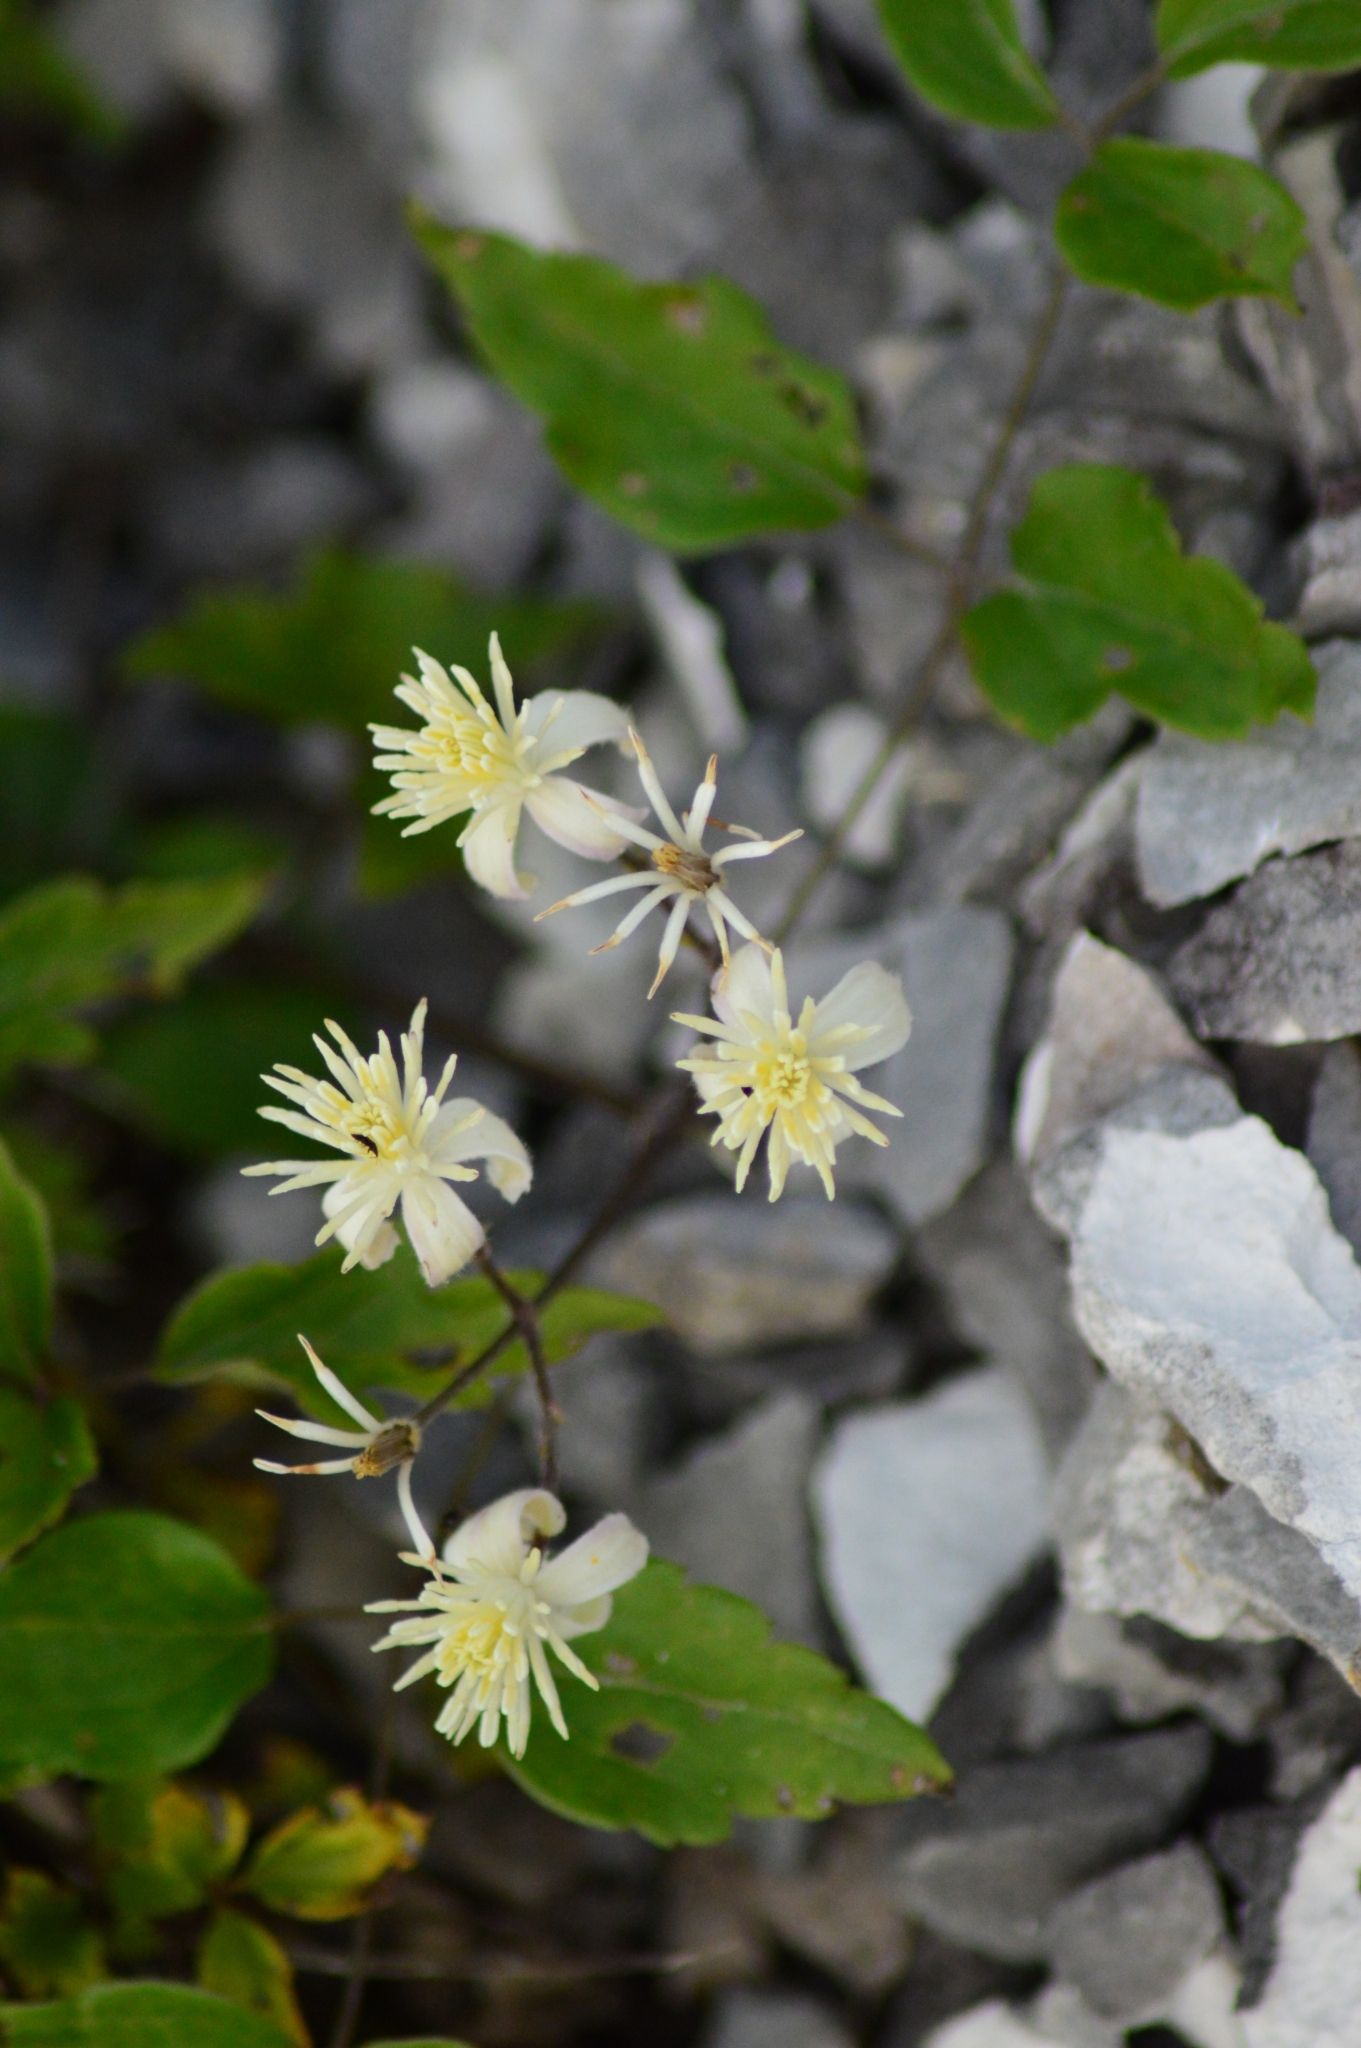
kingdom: Plantae
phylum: Tracheophyta
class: Magnoliopsida
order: Ranunculales
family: Ranunculaceae
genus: Clematis
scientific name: Clematis vitalba
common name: Evergreen clematis
